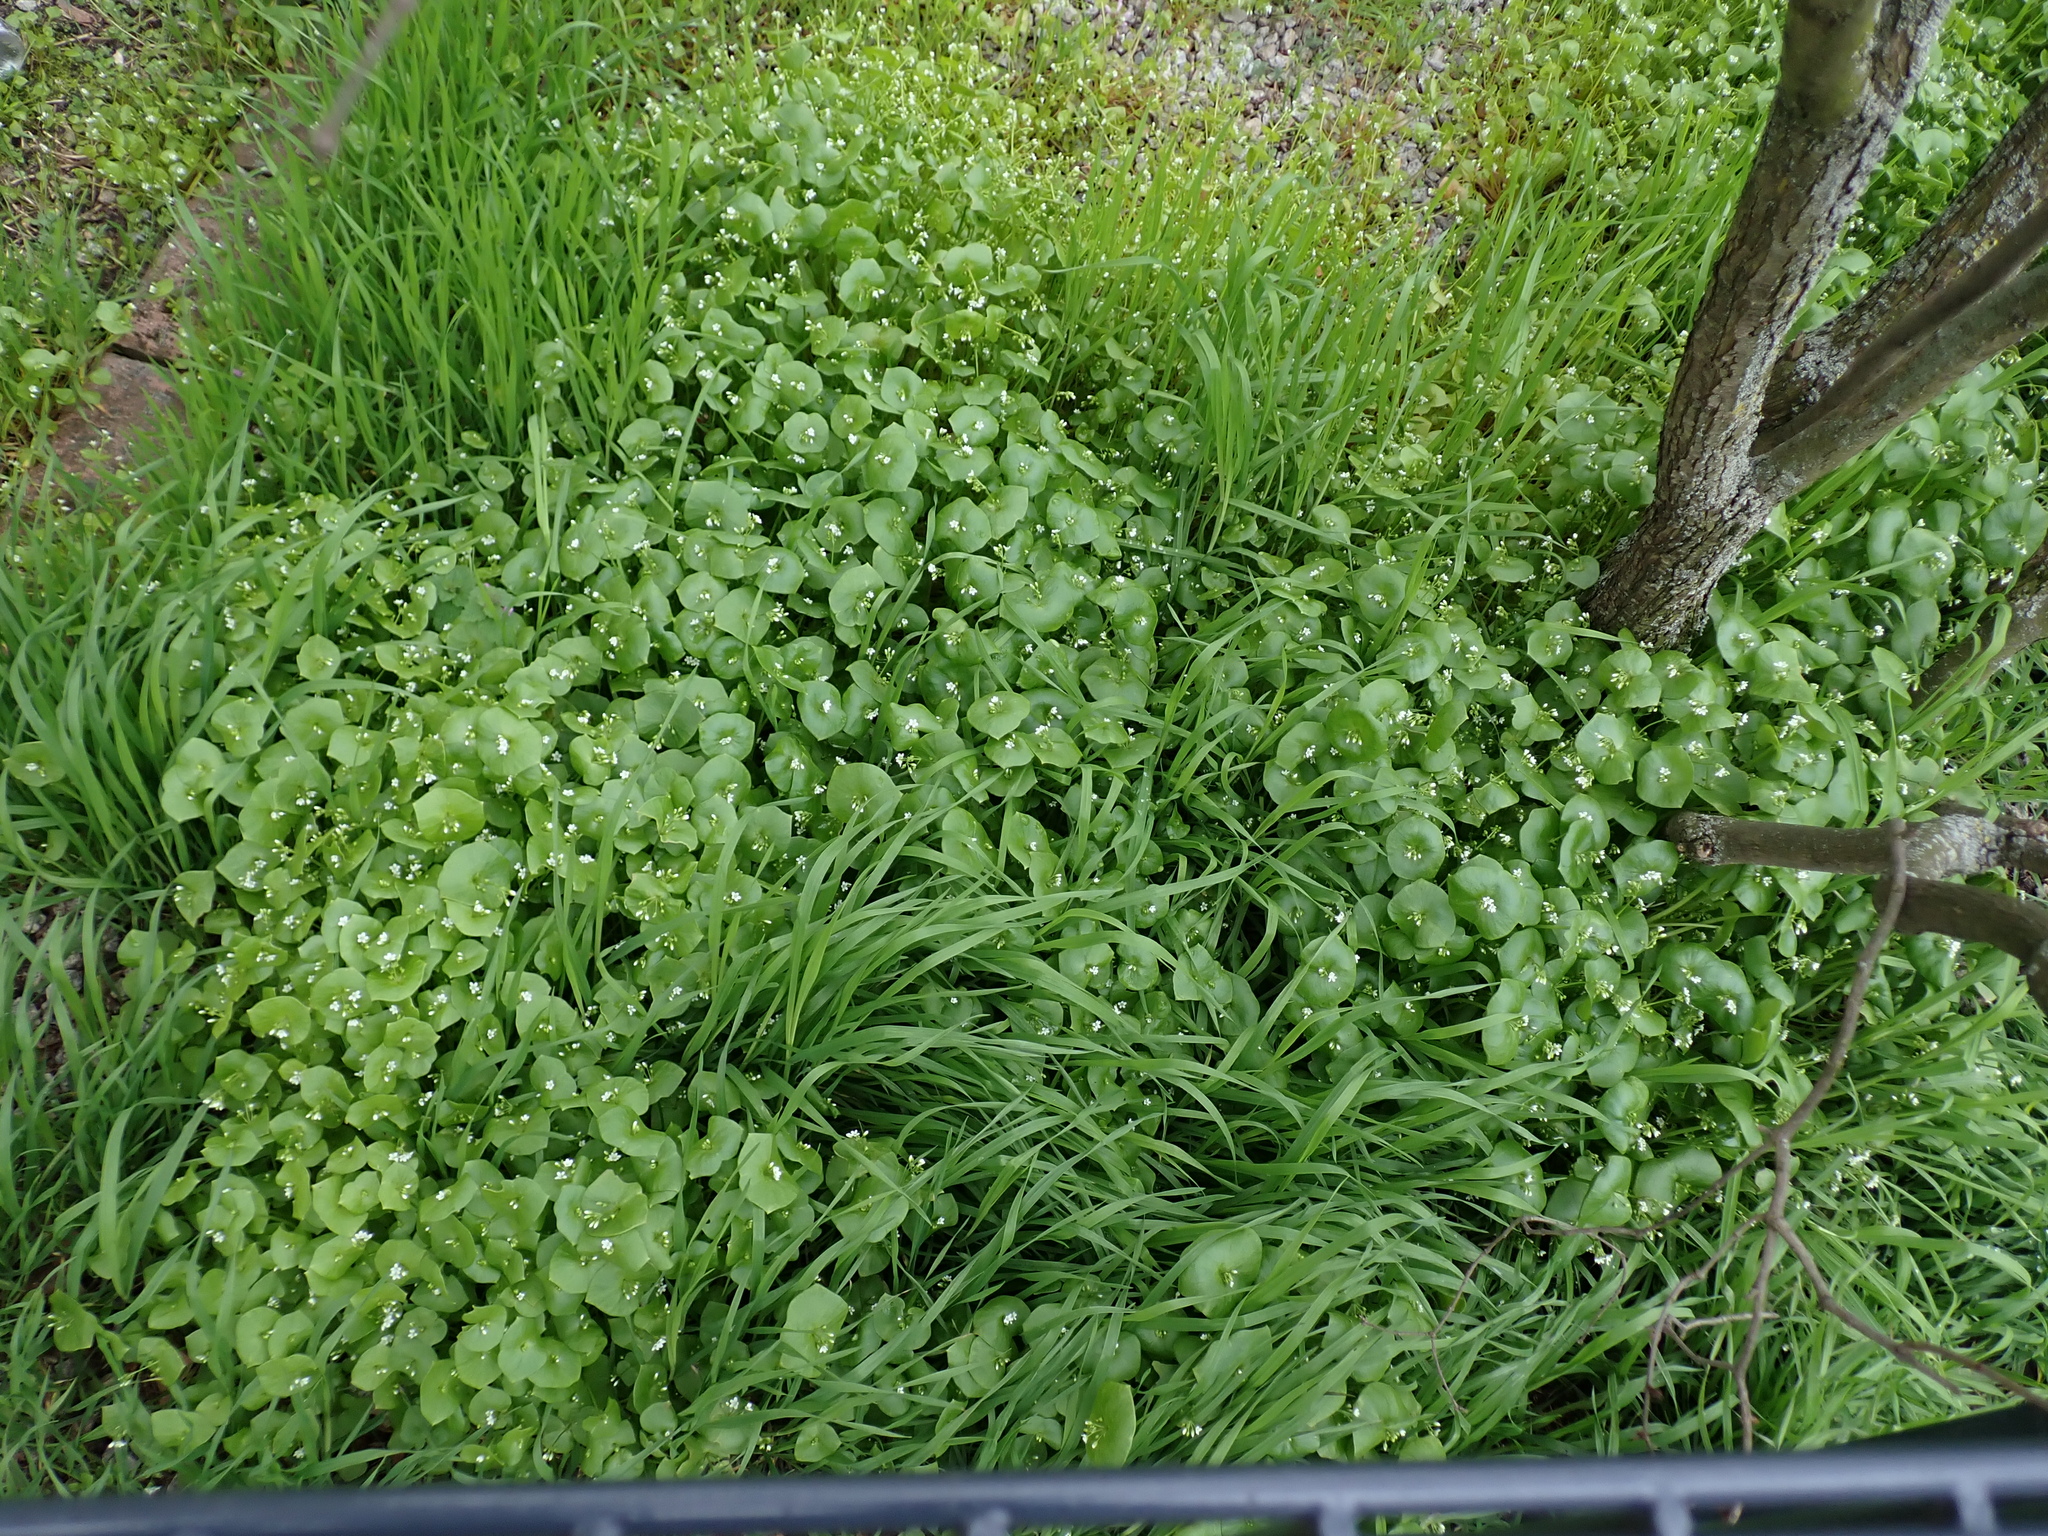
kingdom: Plantae
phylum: Tracheophyta
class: Magnoliopsida
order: Caryophyllales
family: Montiaceae
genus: Claytonia
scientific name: Claytonia perfoliata
